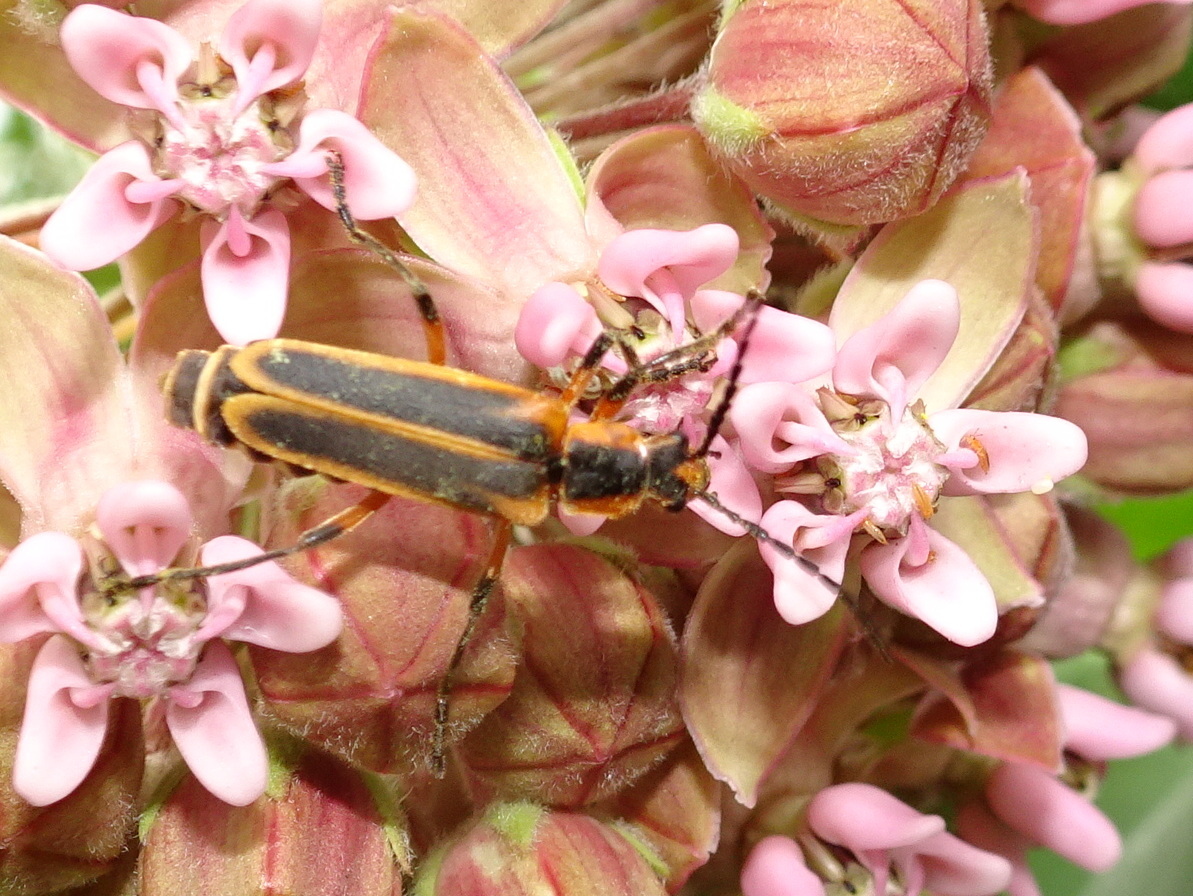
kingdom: Animalia
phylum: Arthropoda
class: Insecta
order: Coleoptera
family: Cantharidae
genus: Chauliognathus
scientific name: Chauliognathus marginatus
